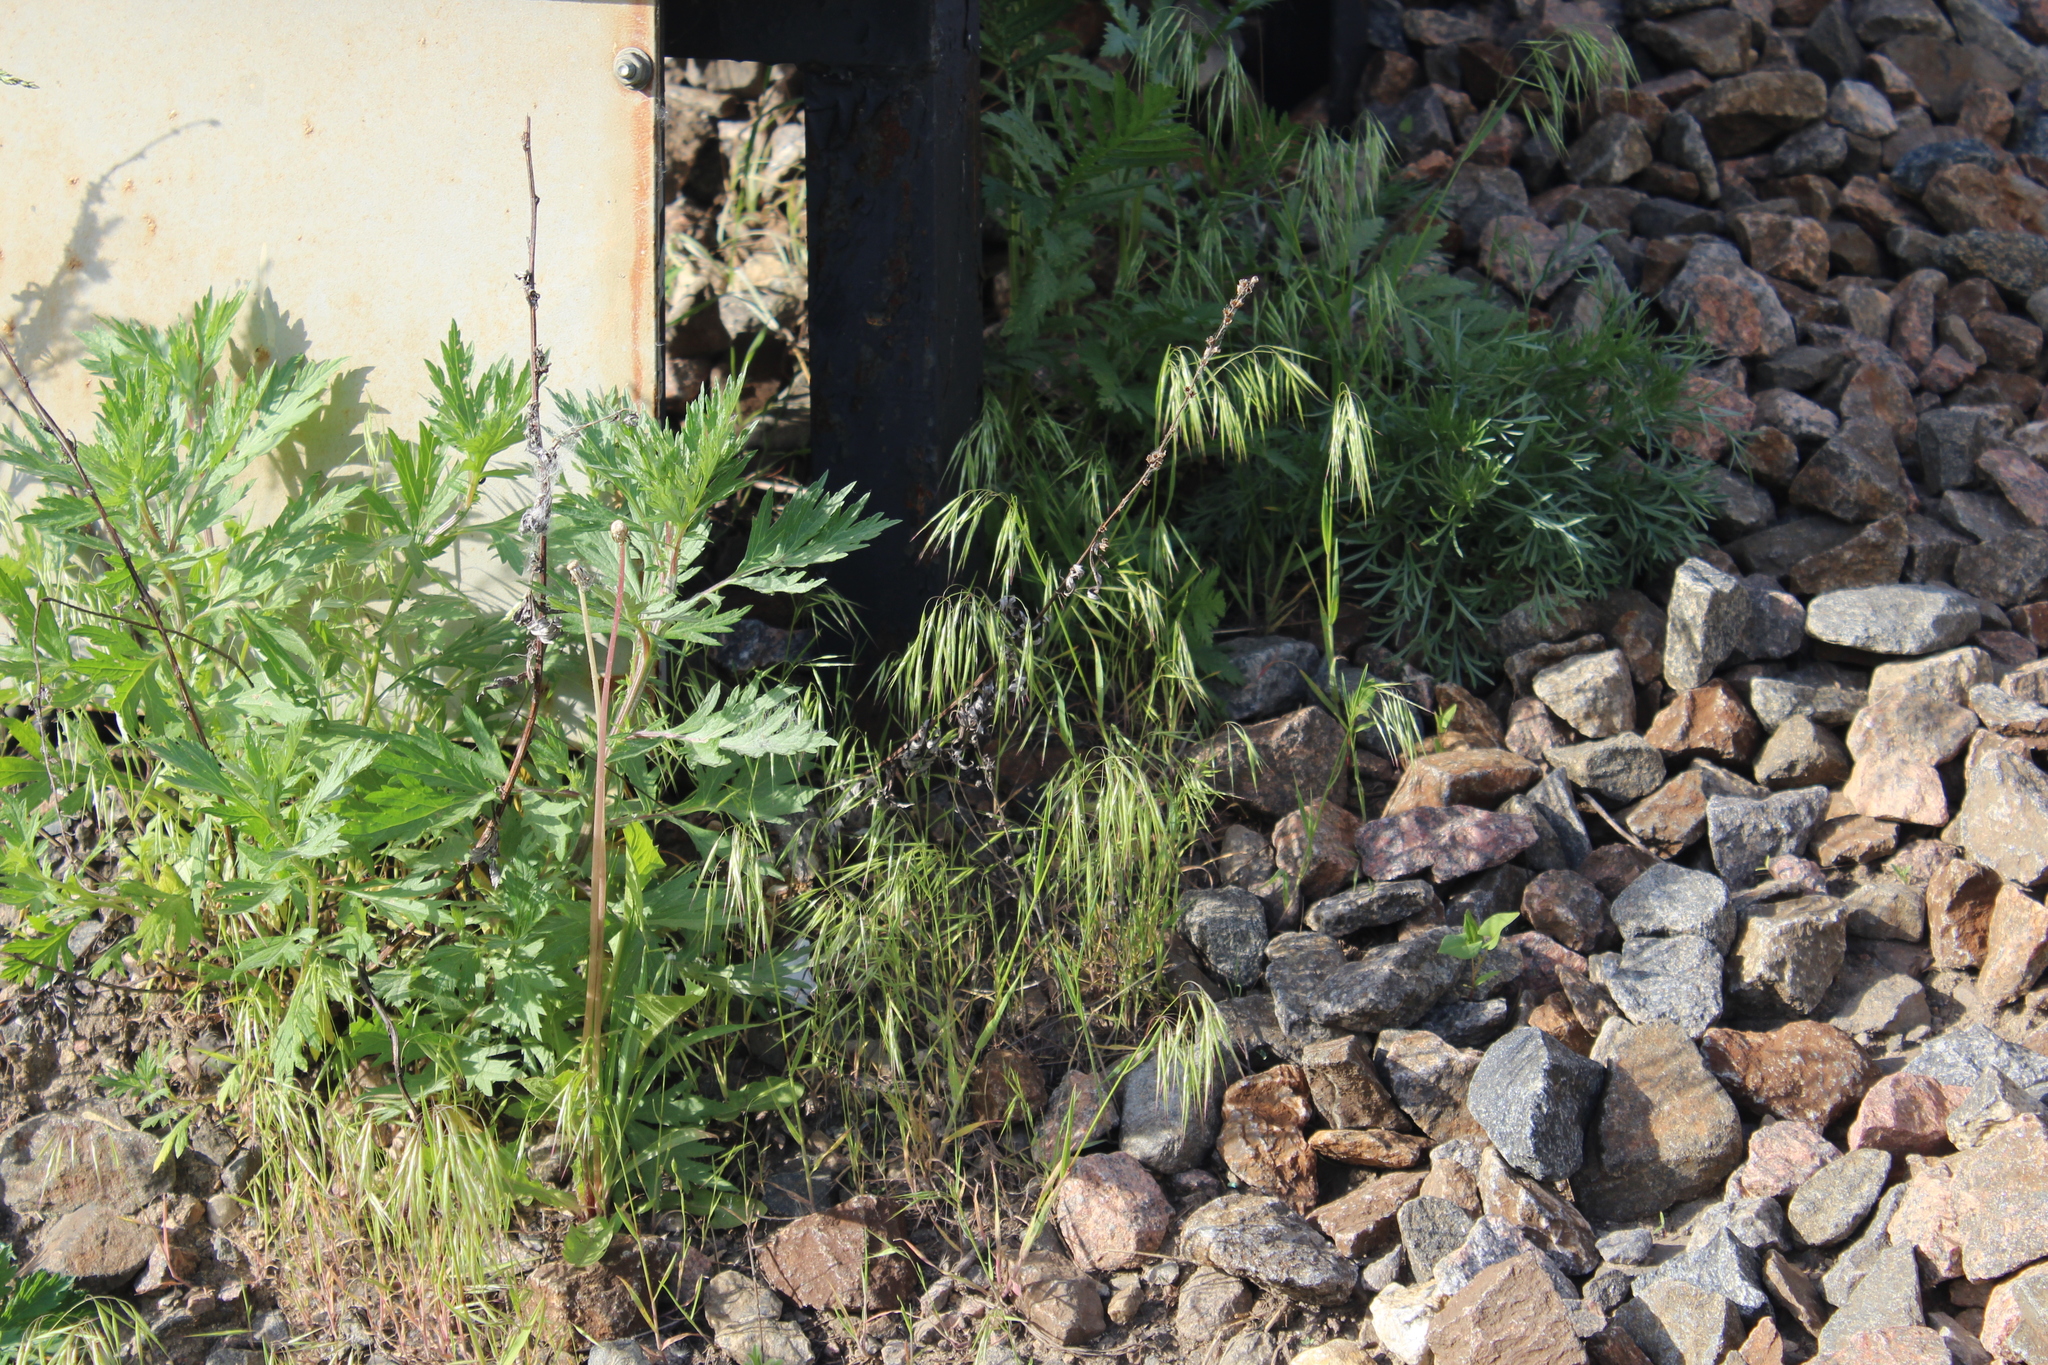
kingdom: Plantae
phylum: Tracheophyta
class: Liliopsida
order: Poales
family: Poaceae
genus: Bromus
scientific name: Bromus tectorum
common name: Cheatgrass
